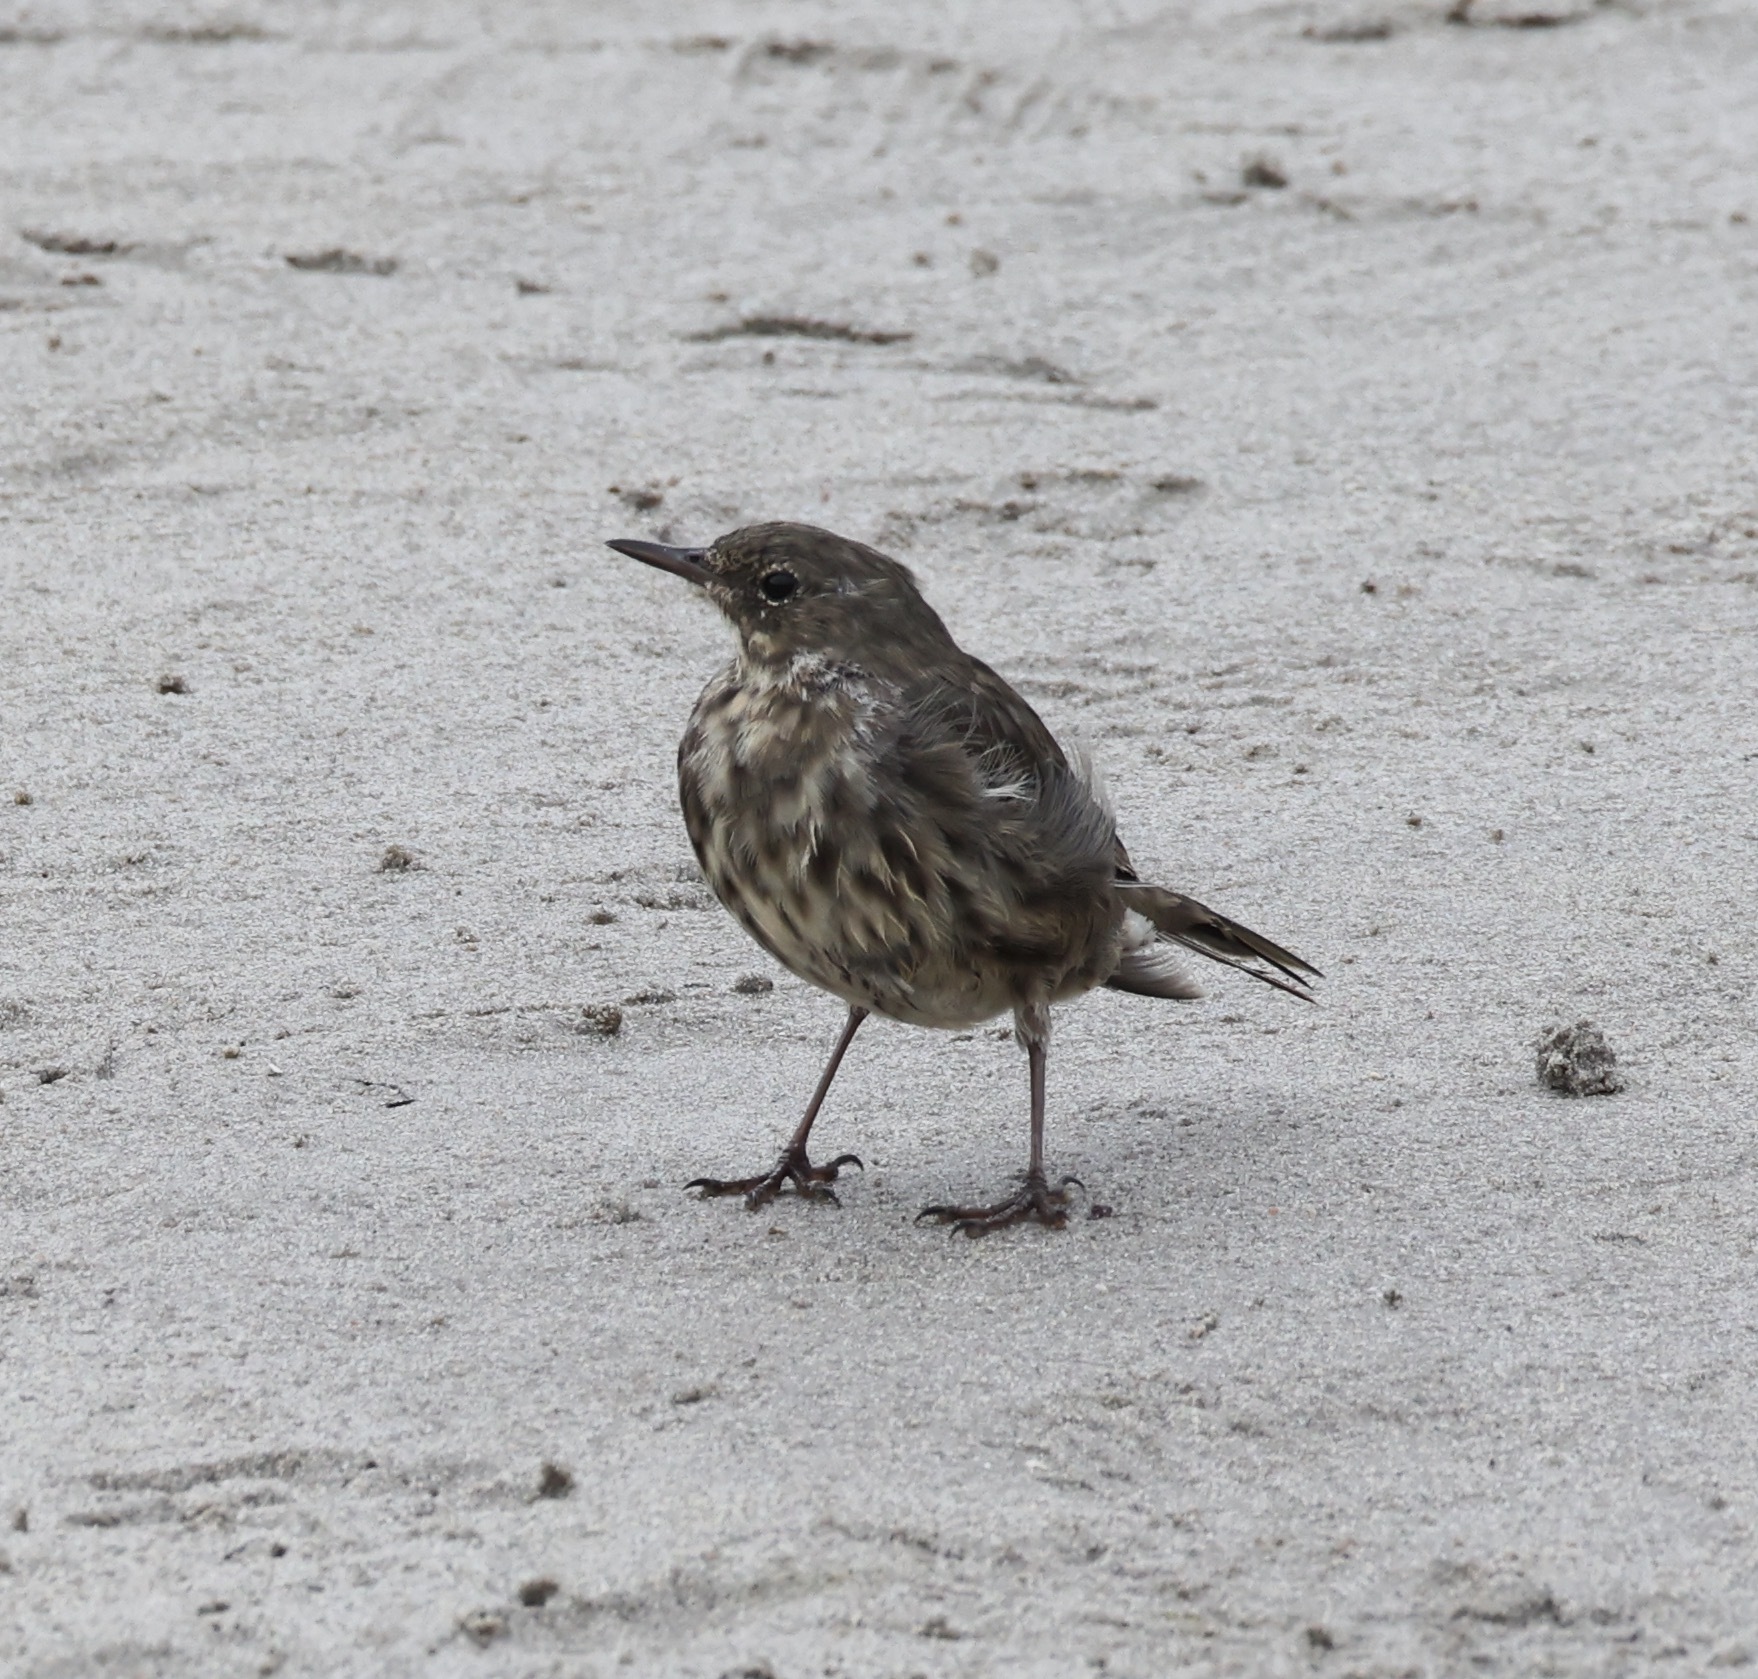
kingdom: Animalia
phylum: Chordata
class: Aves
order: Passeriformes
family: Motacillidae
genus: Anthus
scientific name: Anthus petrosus
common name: Eurasian rock pipit
